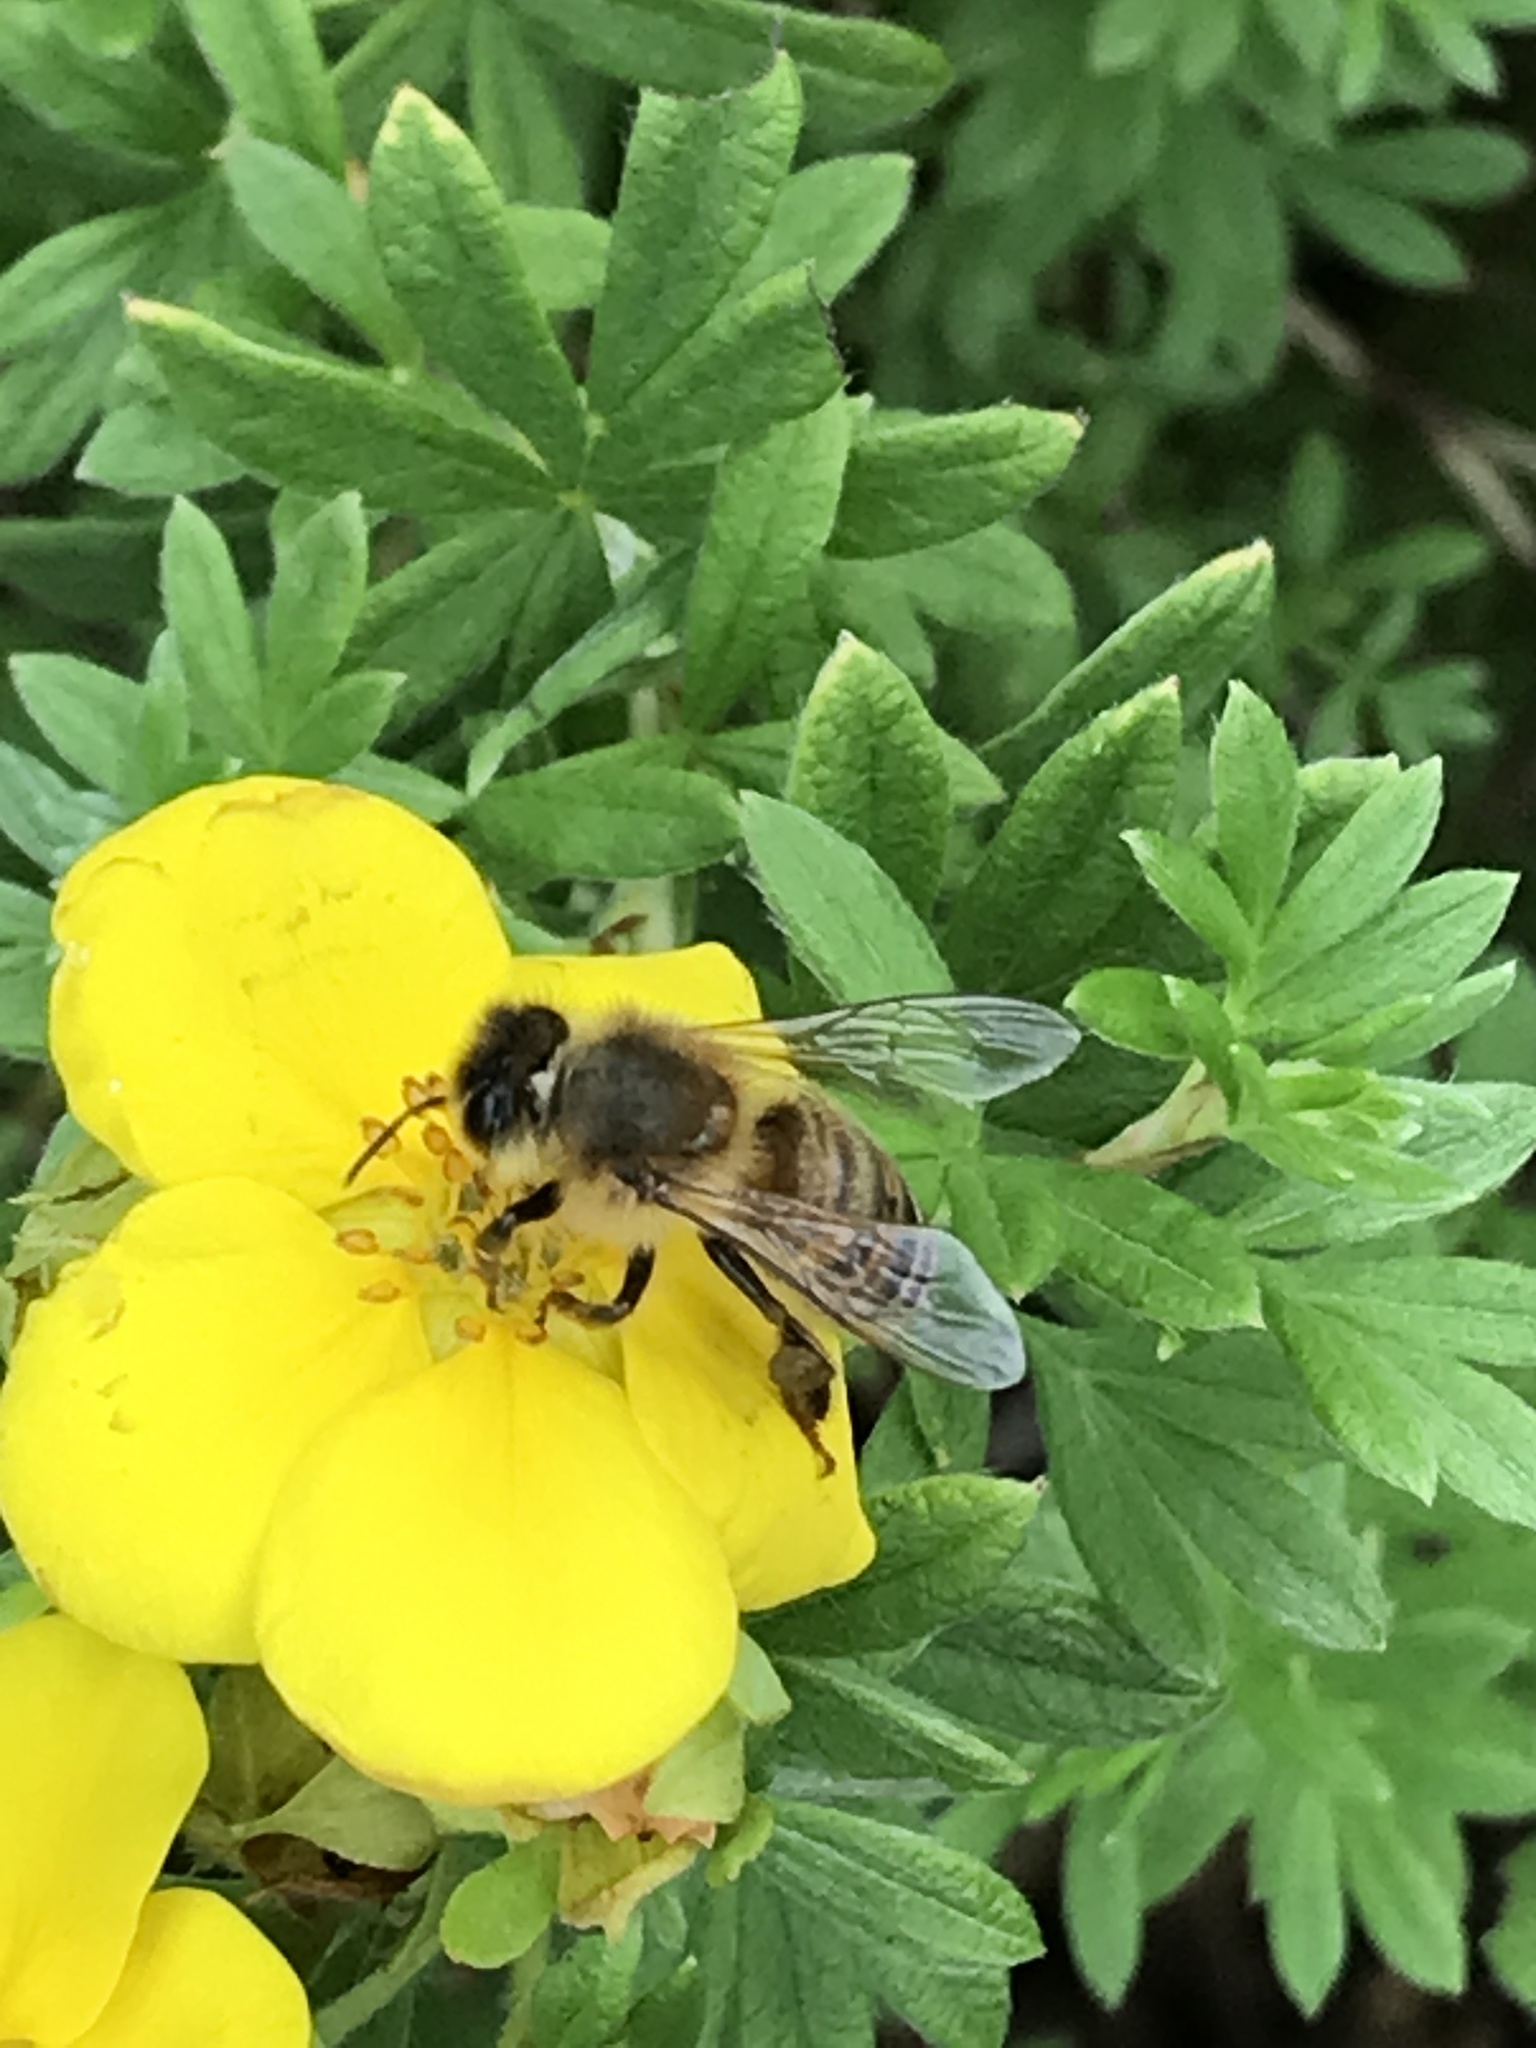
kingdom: Animalia
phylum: Arthropoda
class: Insecta
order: Hymenoptera
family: Apidae
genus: Apis
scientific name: Apis mellifera
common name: Honey bee
